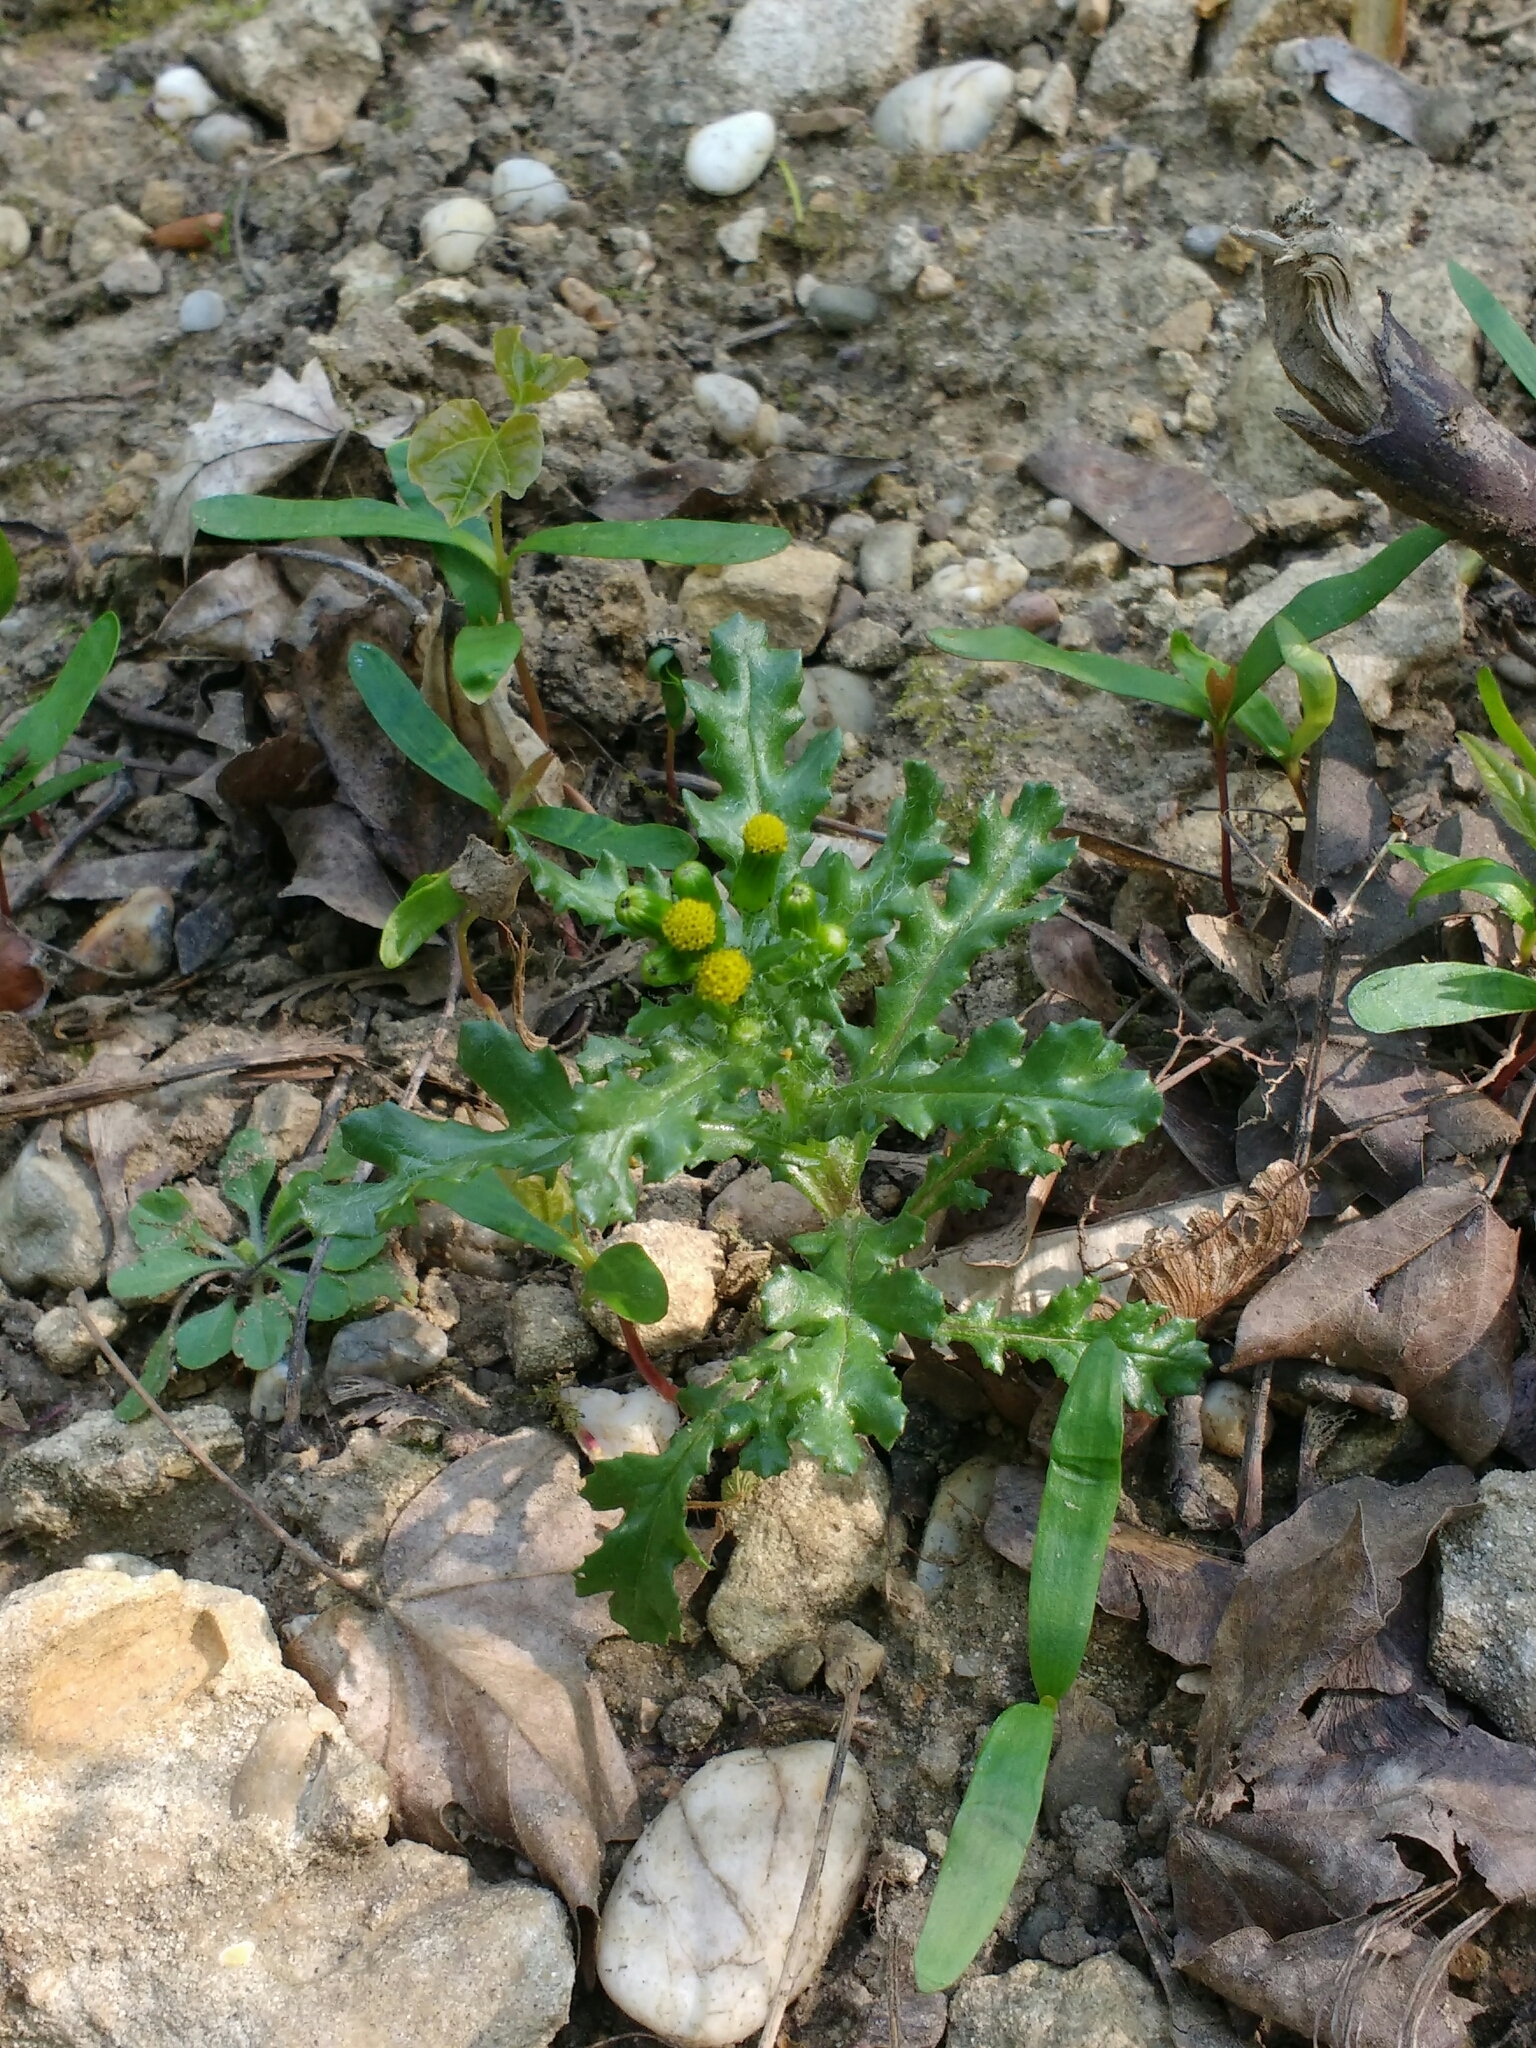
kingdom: Plantae
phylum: Tracheophyta
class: Magnoliopsida
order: Asterales
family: Asteraceae
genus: Senecio
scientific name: Senecio vulgaris
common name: Old-man-in-the-spring
